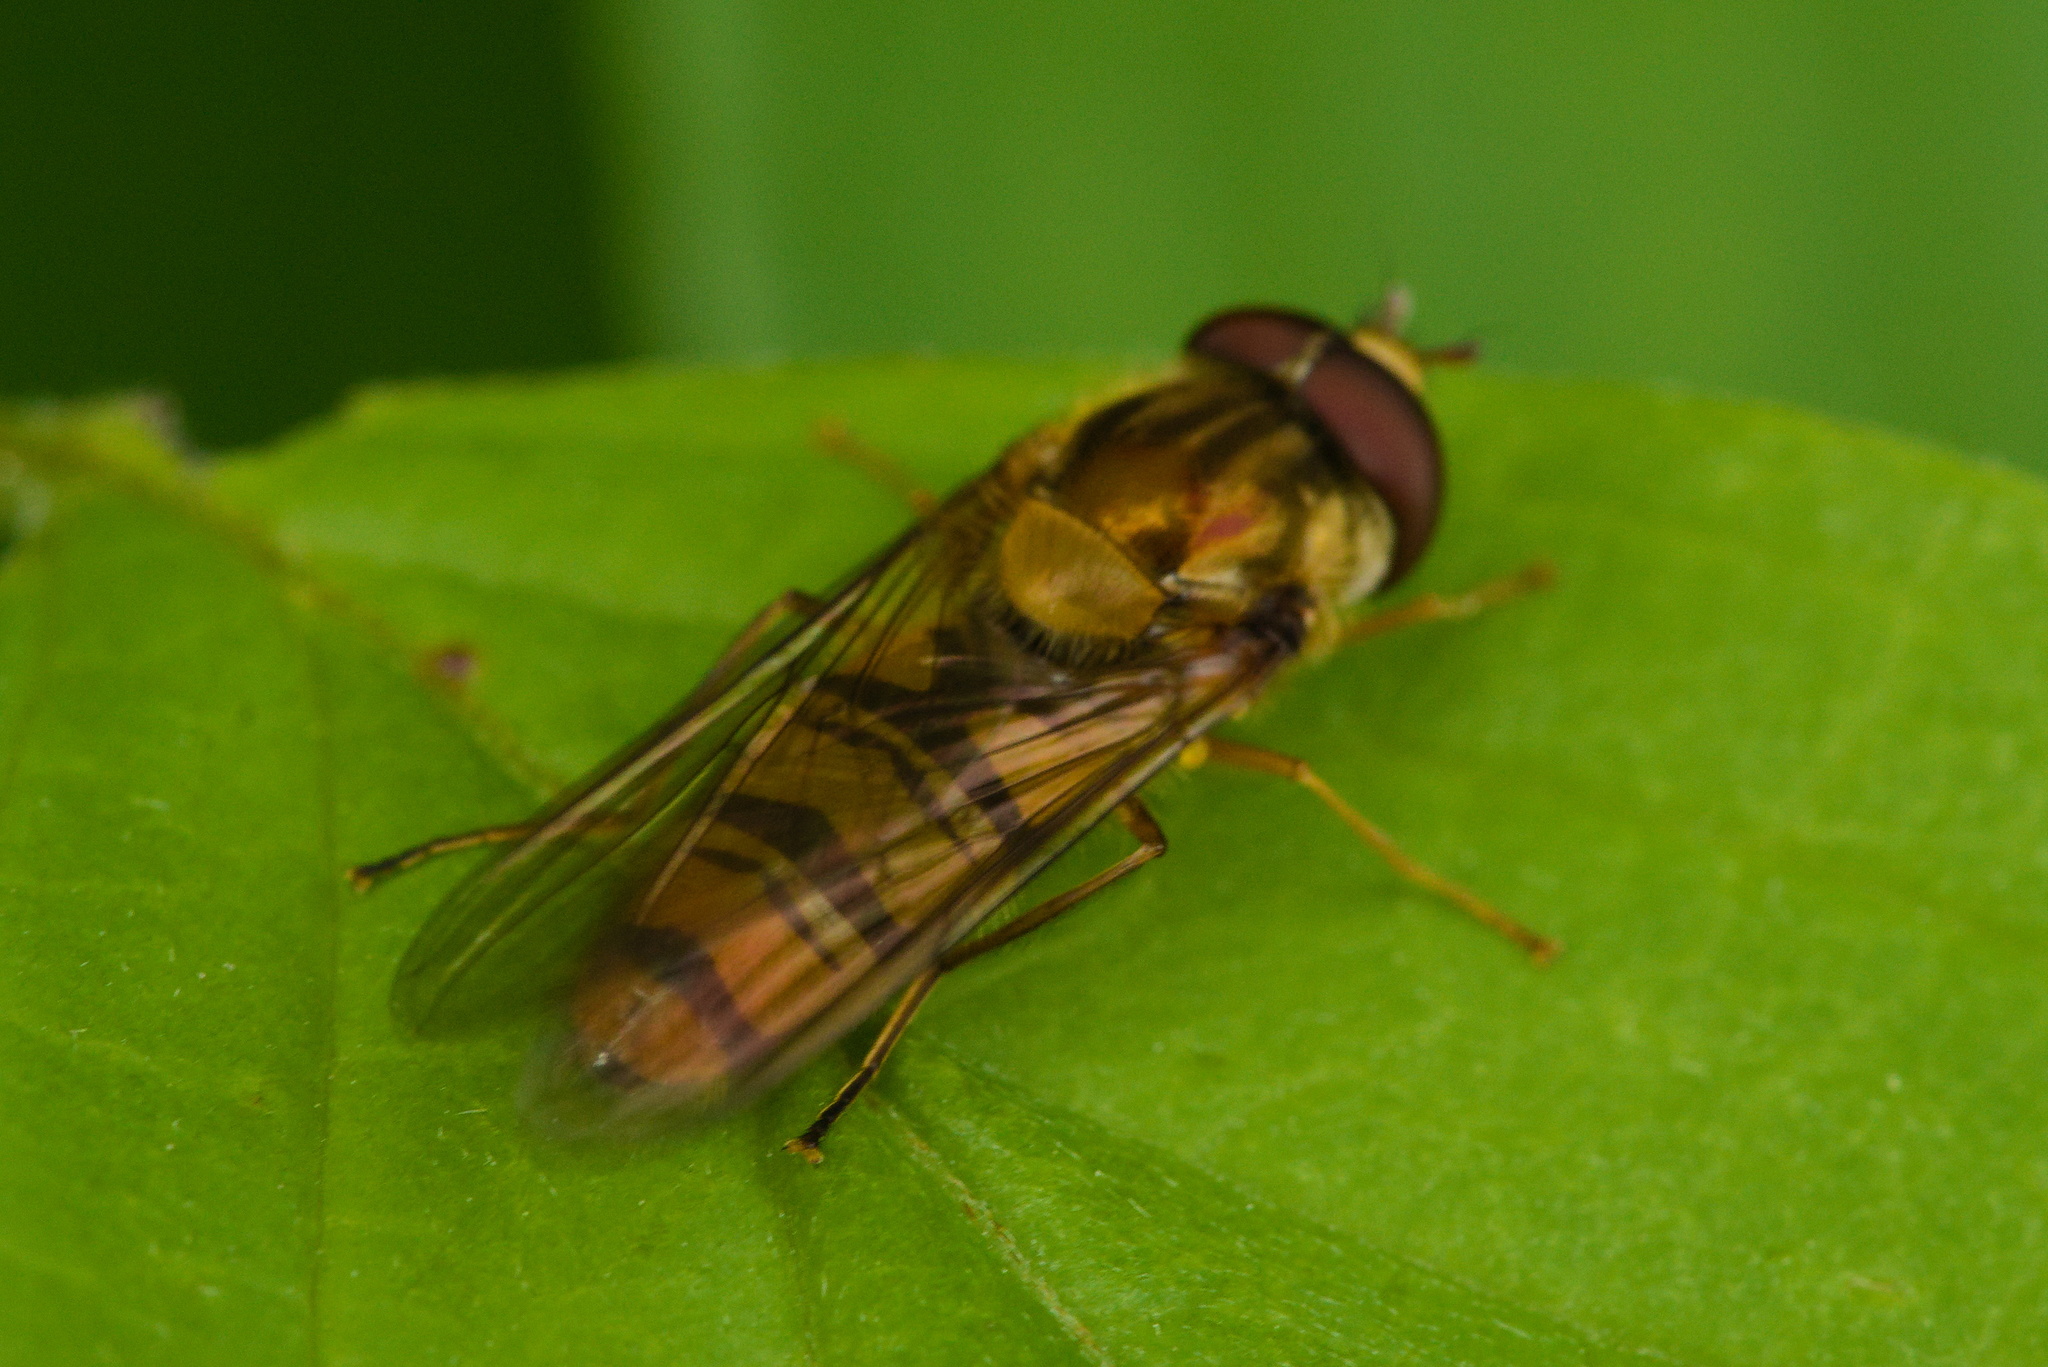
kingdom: Animalia
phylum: Arthropoda
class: Insecta
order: Diptera
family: Syrphidae
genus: Episyrphus
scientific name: Episyrphus balteatus
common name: Marmalade hoverfly
